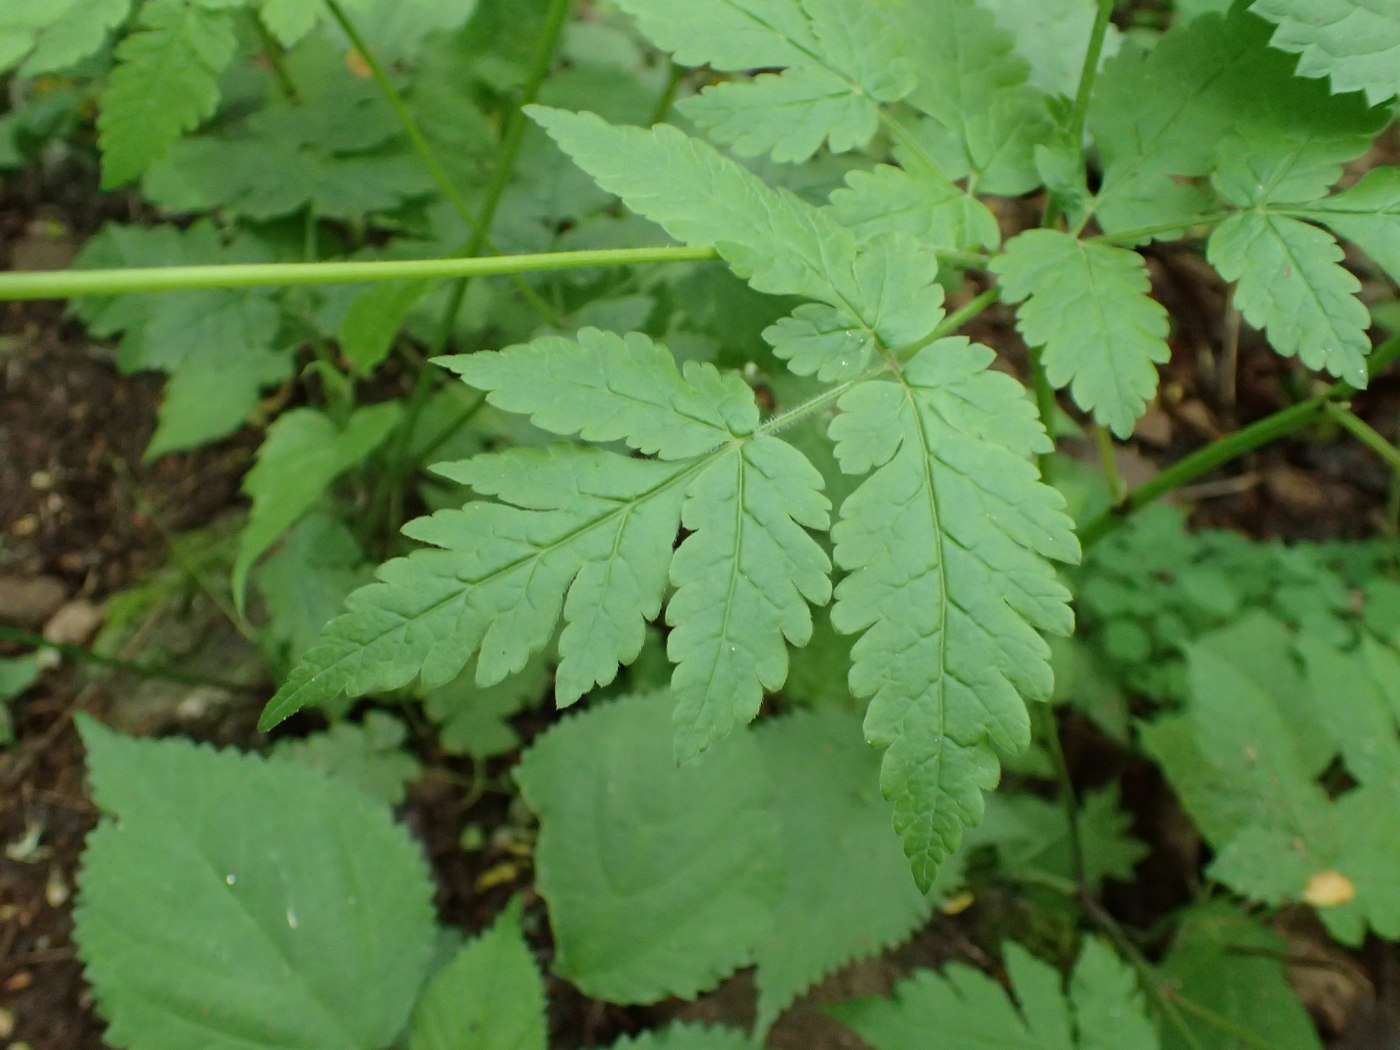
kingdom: Plantae
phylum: Tracheophyta
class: Magnoliopsida
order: Apiales
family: Apiaceae
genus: Osmorhiza
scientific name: Osmorhiza claytonii
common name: Hairy sweet cicely
